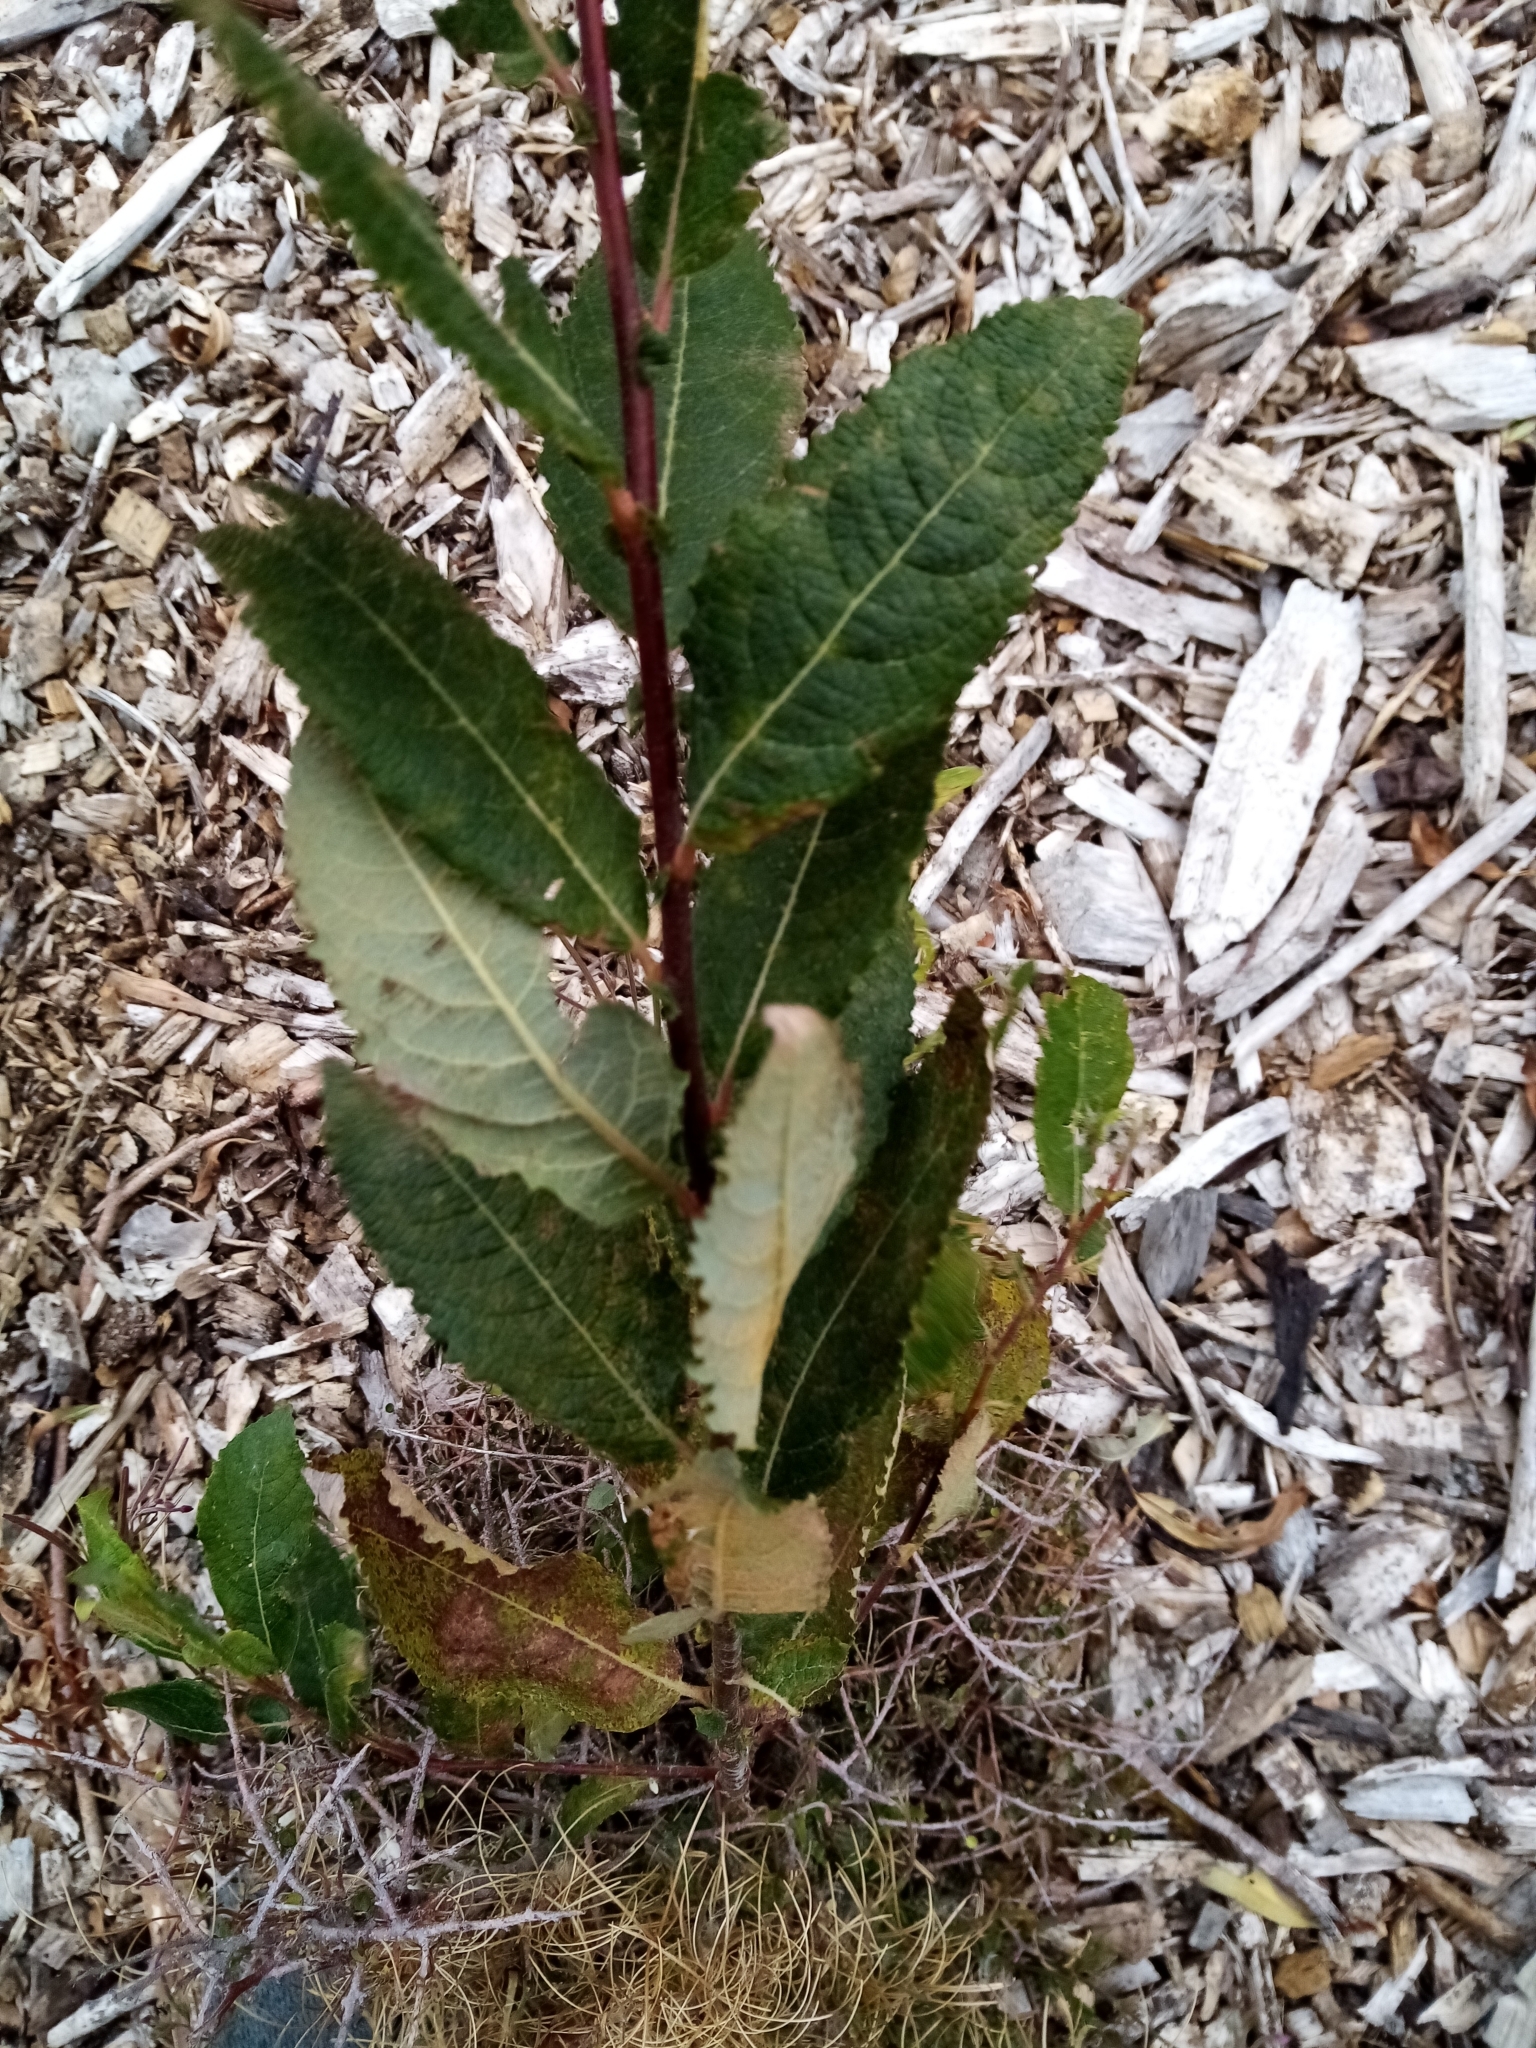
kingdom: Plantae
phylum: Tracheophyta
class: Magnoliopsida
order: Malpighiales
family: Salicaceae
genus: Salix
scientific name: Salix cinerea
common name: Common sallow
